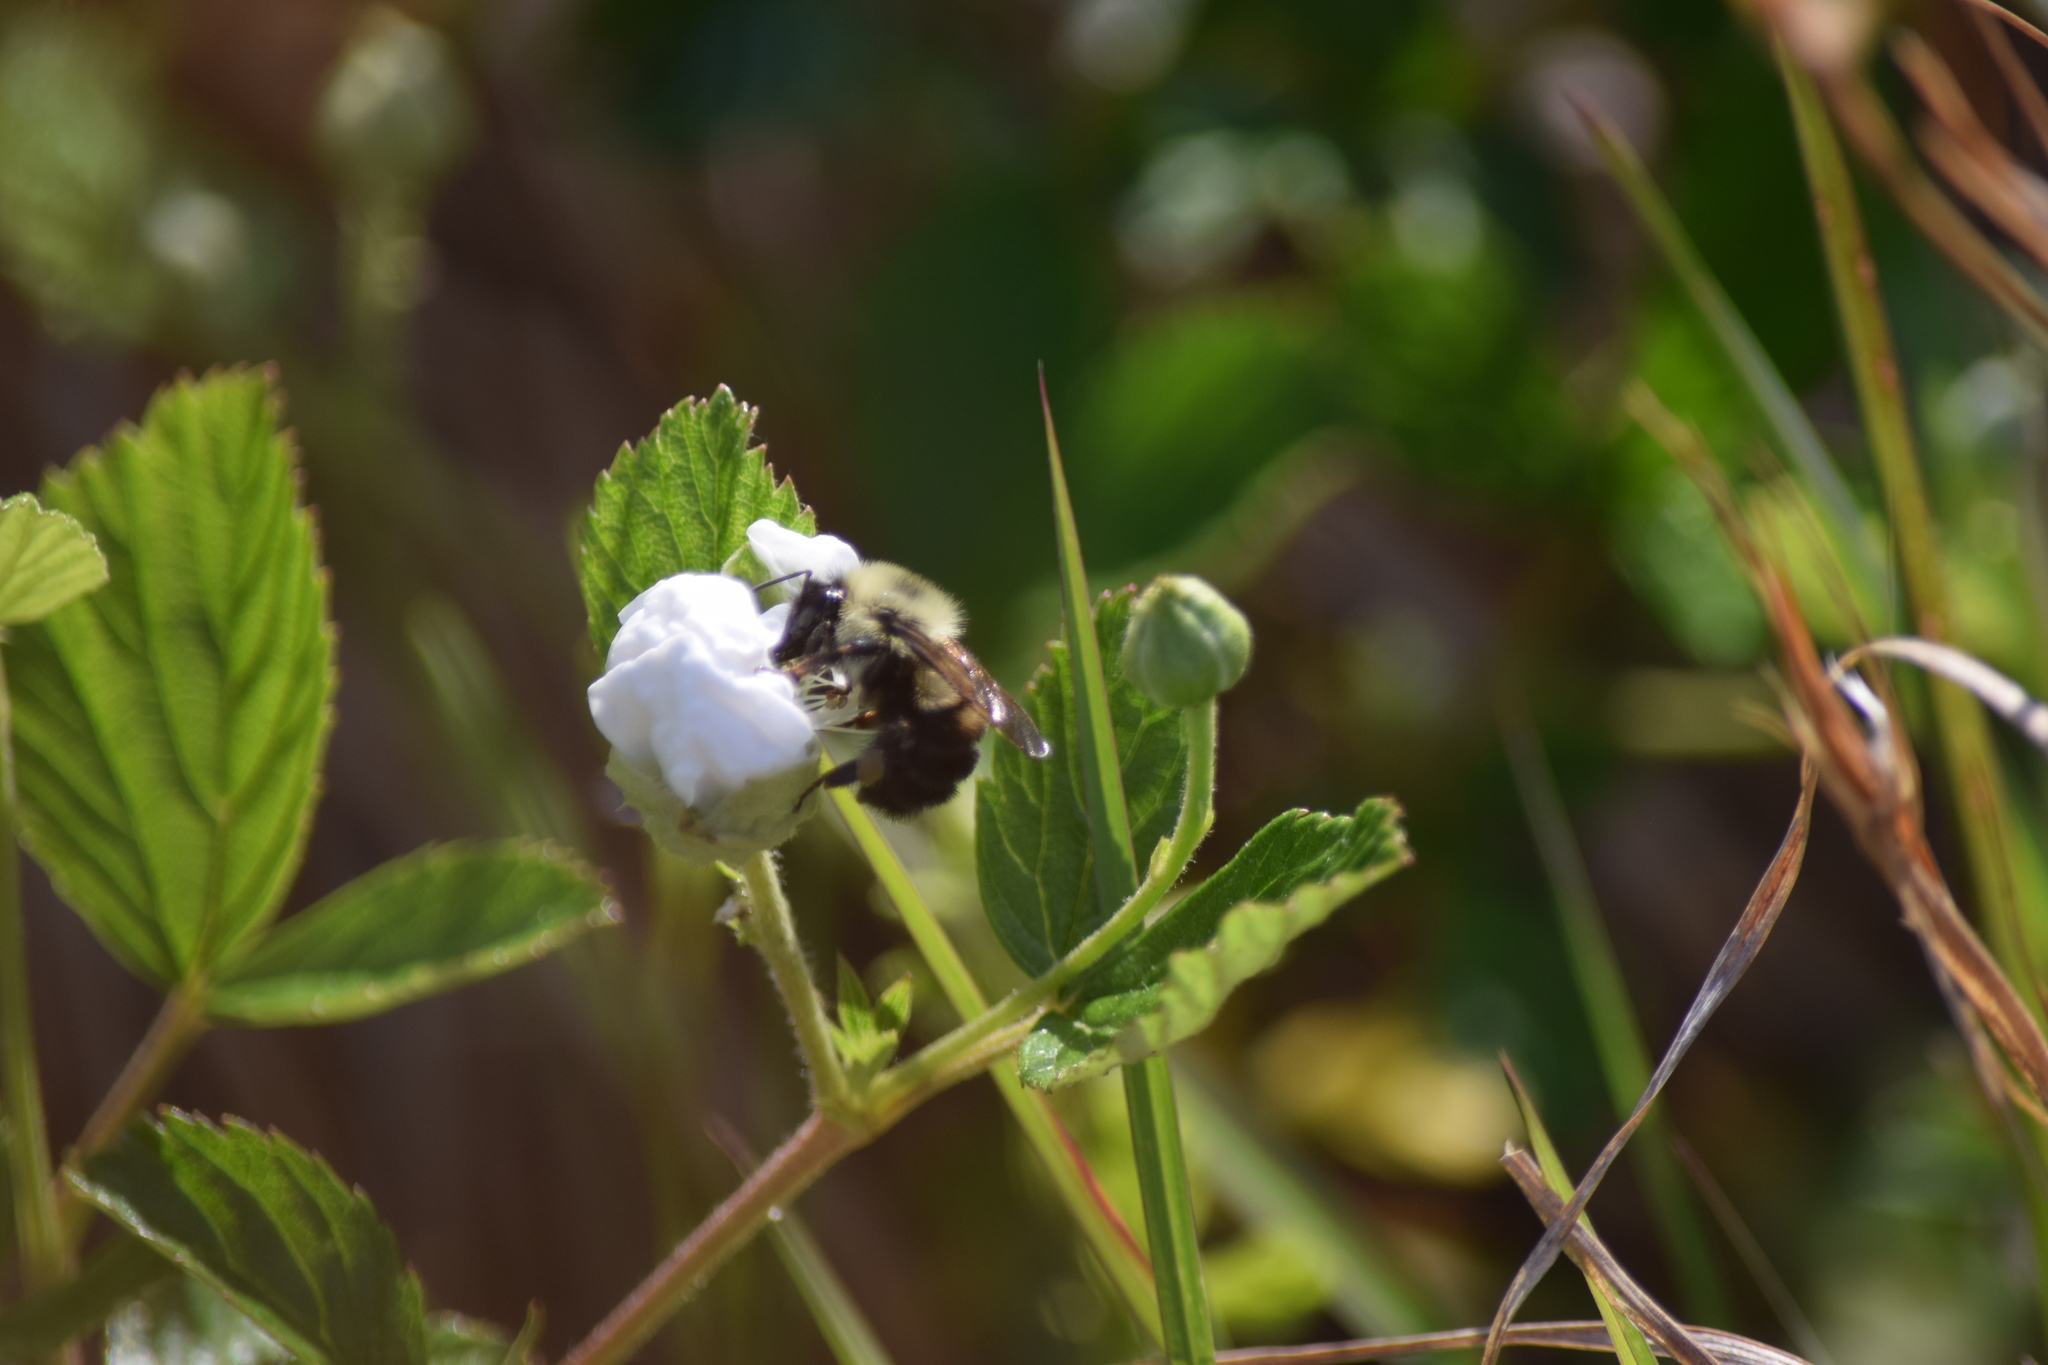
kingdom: Animalia
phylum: Arthropoda
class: Insecta
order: Hymenoptera
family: Apidae
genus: Bombus
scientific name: Bombus bimaculatus
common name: Two-spotted bumble bee
